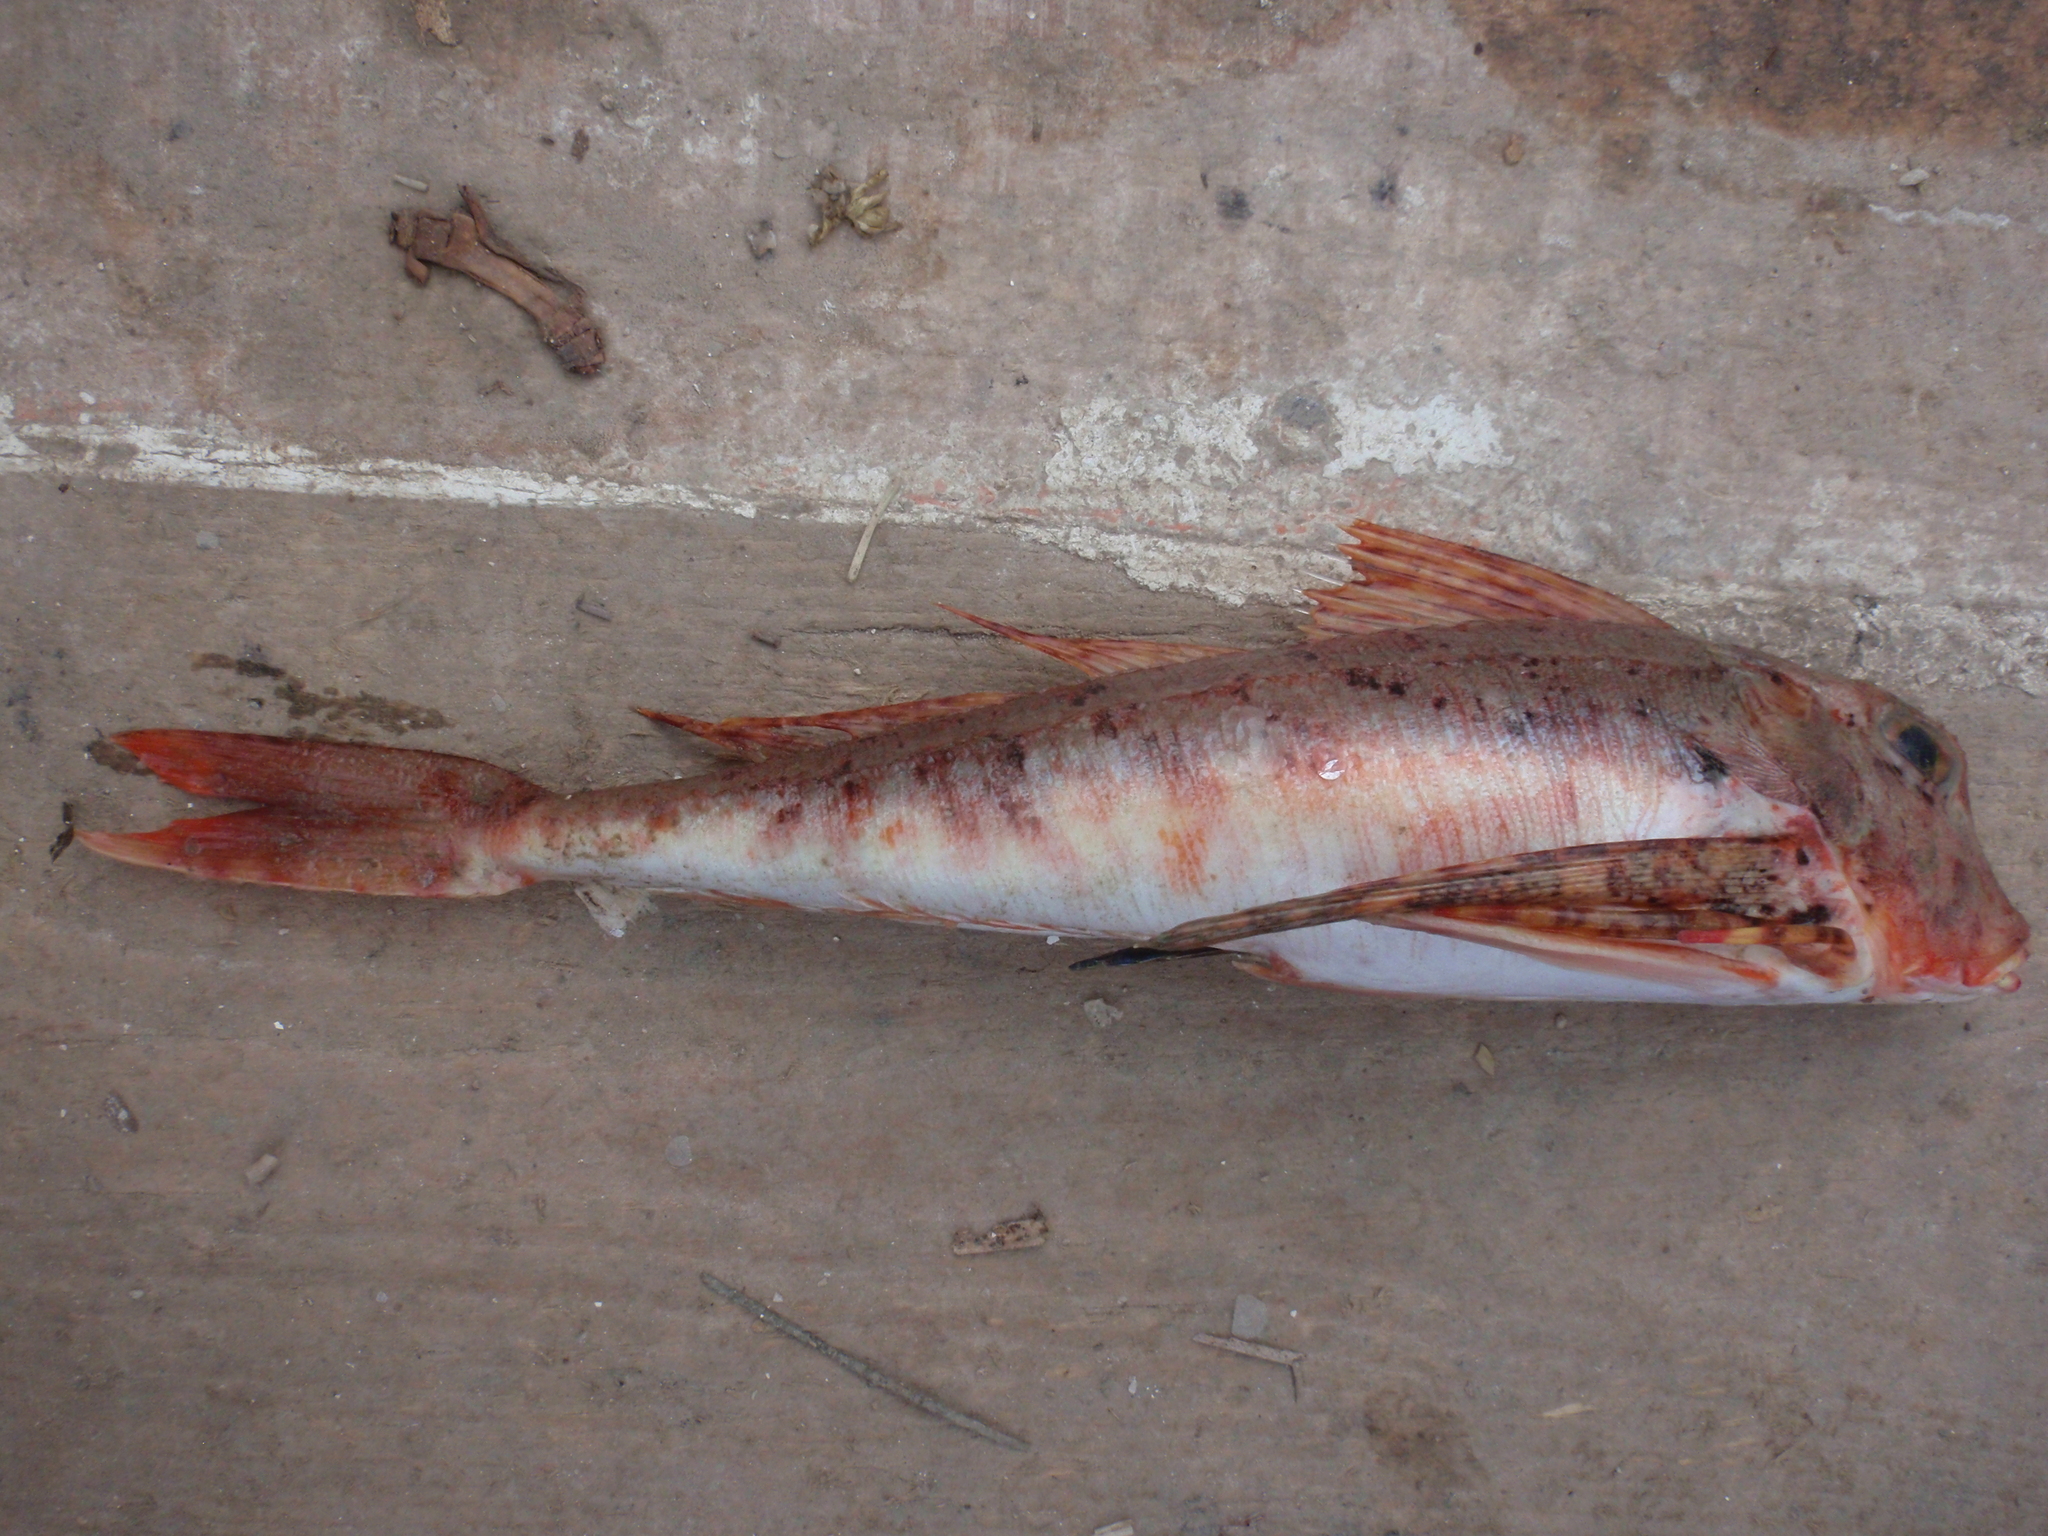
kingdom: Animalia
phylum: Chordata
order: Scorpaeniformes
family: Triglidae
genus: Chelidonichthys
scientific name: Chelidonichthys lastoviza
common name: Streaked gurnard
